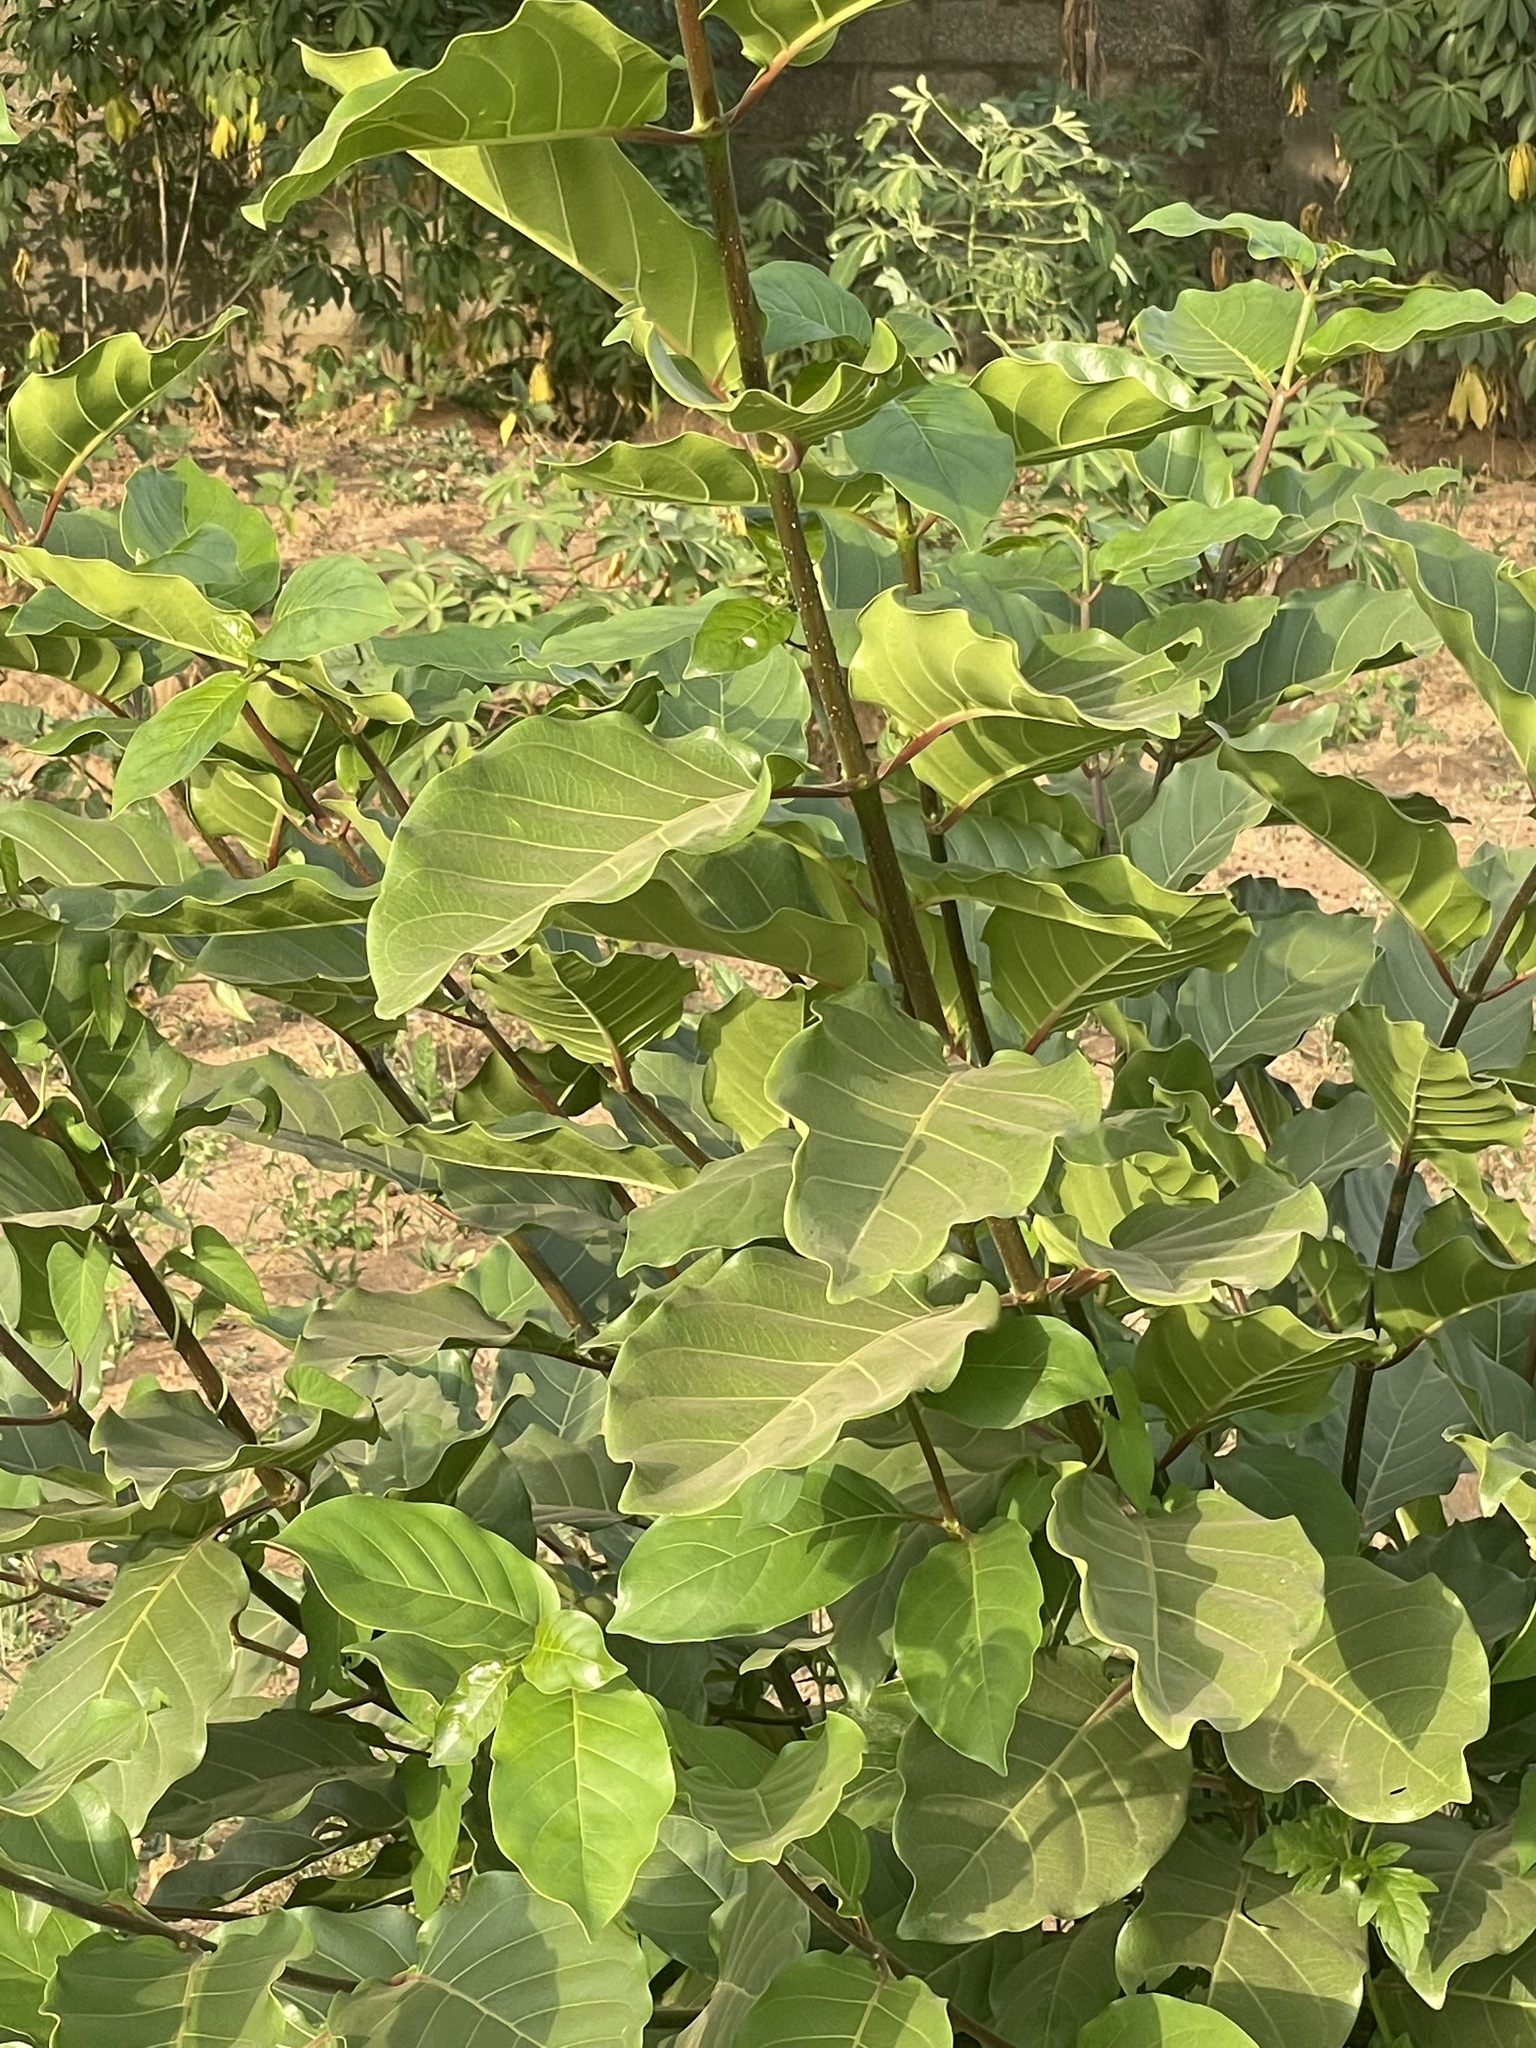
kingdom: Plantae
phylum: Tracheophyta
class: Magnoliopsida
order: Rosales
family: Moraceae
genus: Ficus
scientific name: Ficus sur
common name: Cape fig
